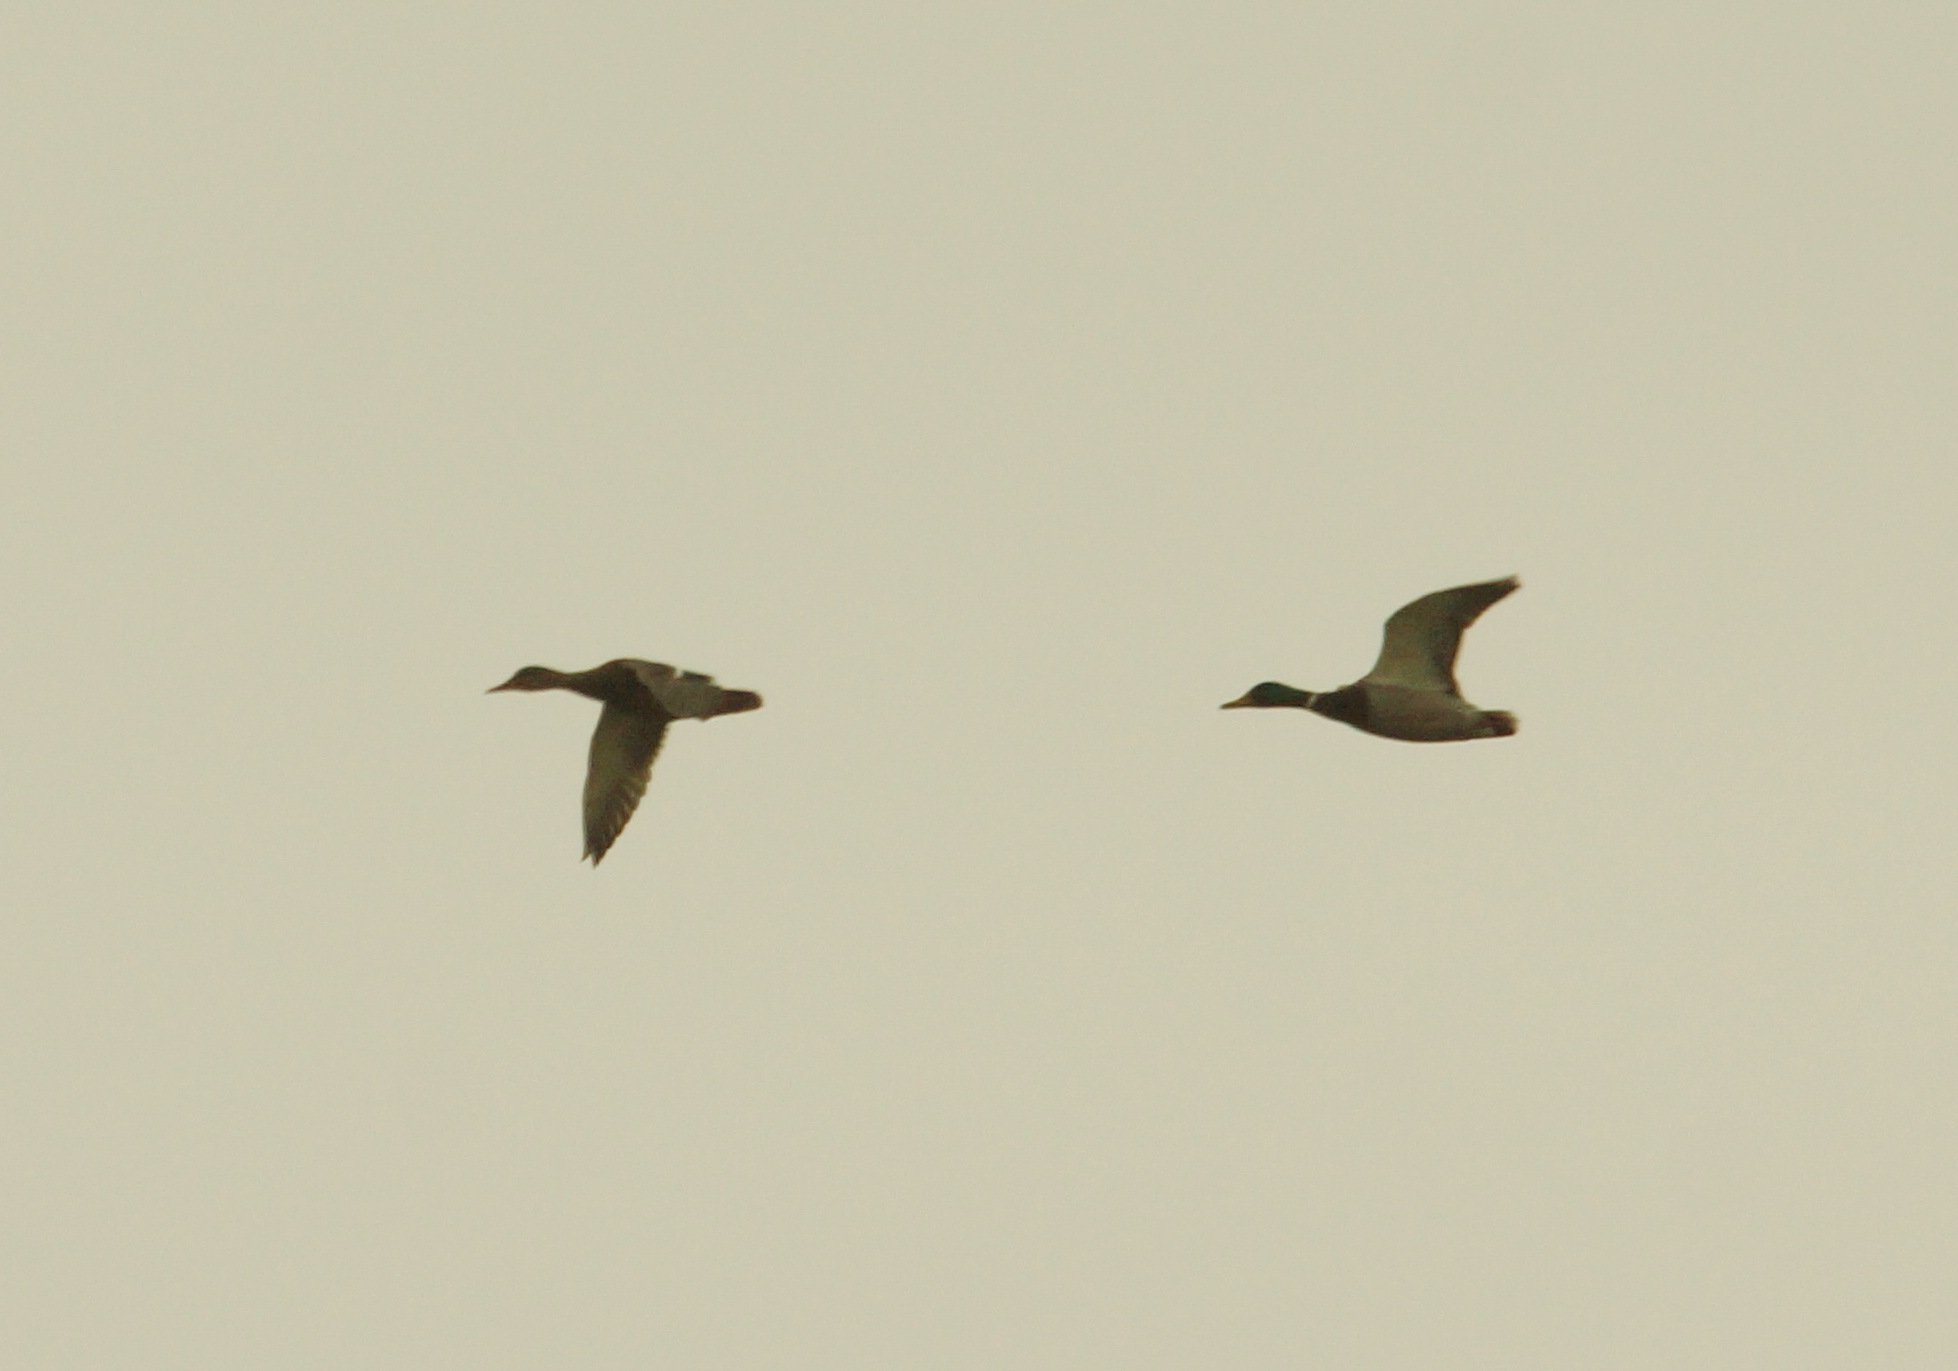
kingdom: Animalia
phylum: Chordata
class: Aves
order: Anseriformes
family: Anatidae
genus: Anas
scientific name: Anas platyrhynchos
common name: Mallard
